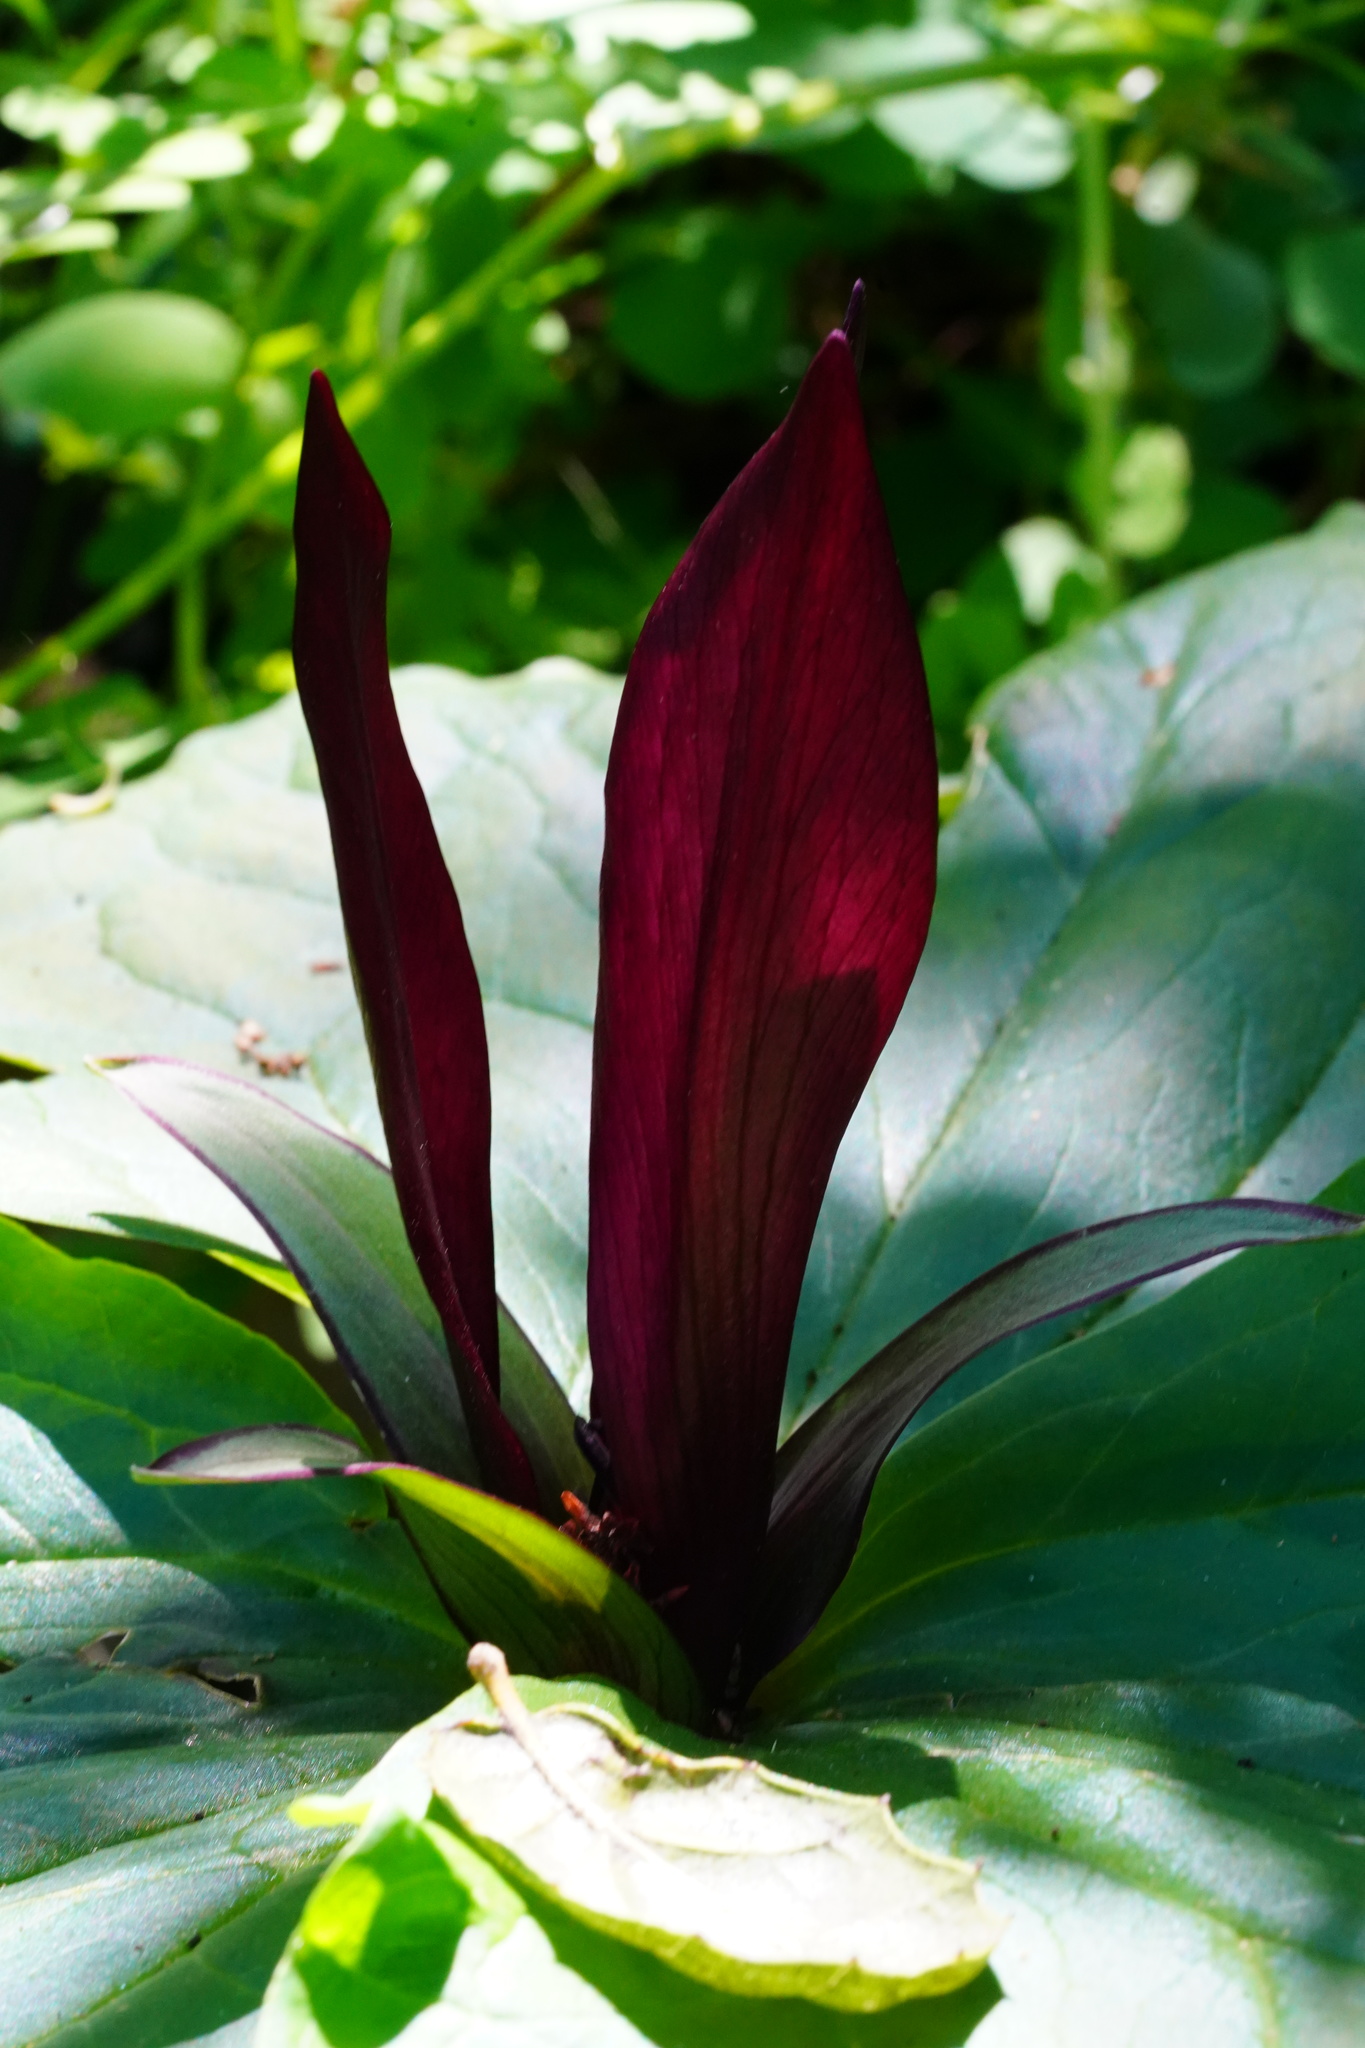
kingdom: Plantae
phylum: Tracheophyta
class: Liliopsida
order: Liliales
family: Melanthiaceae
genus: Trillium
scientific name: Trillium chloropetalum
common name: Giant trillium
